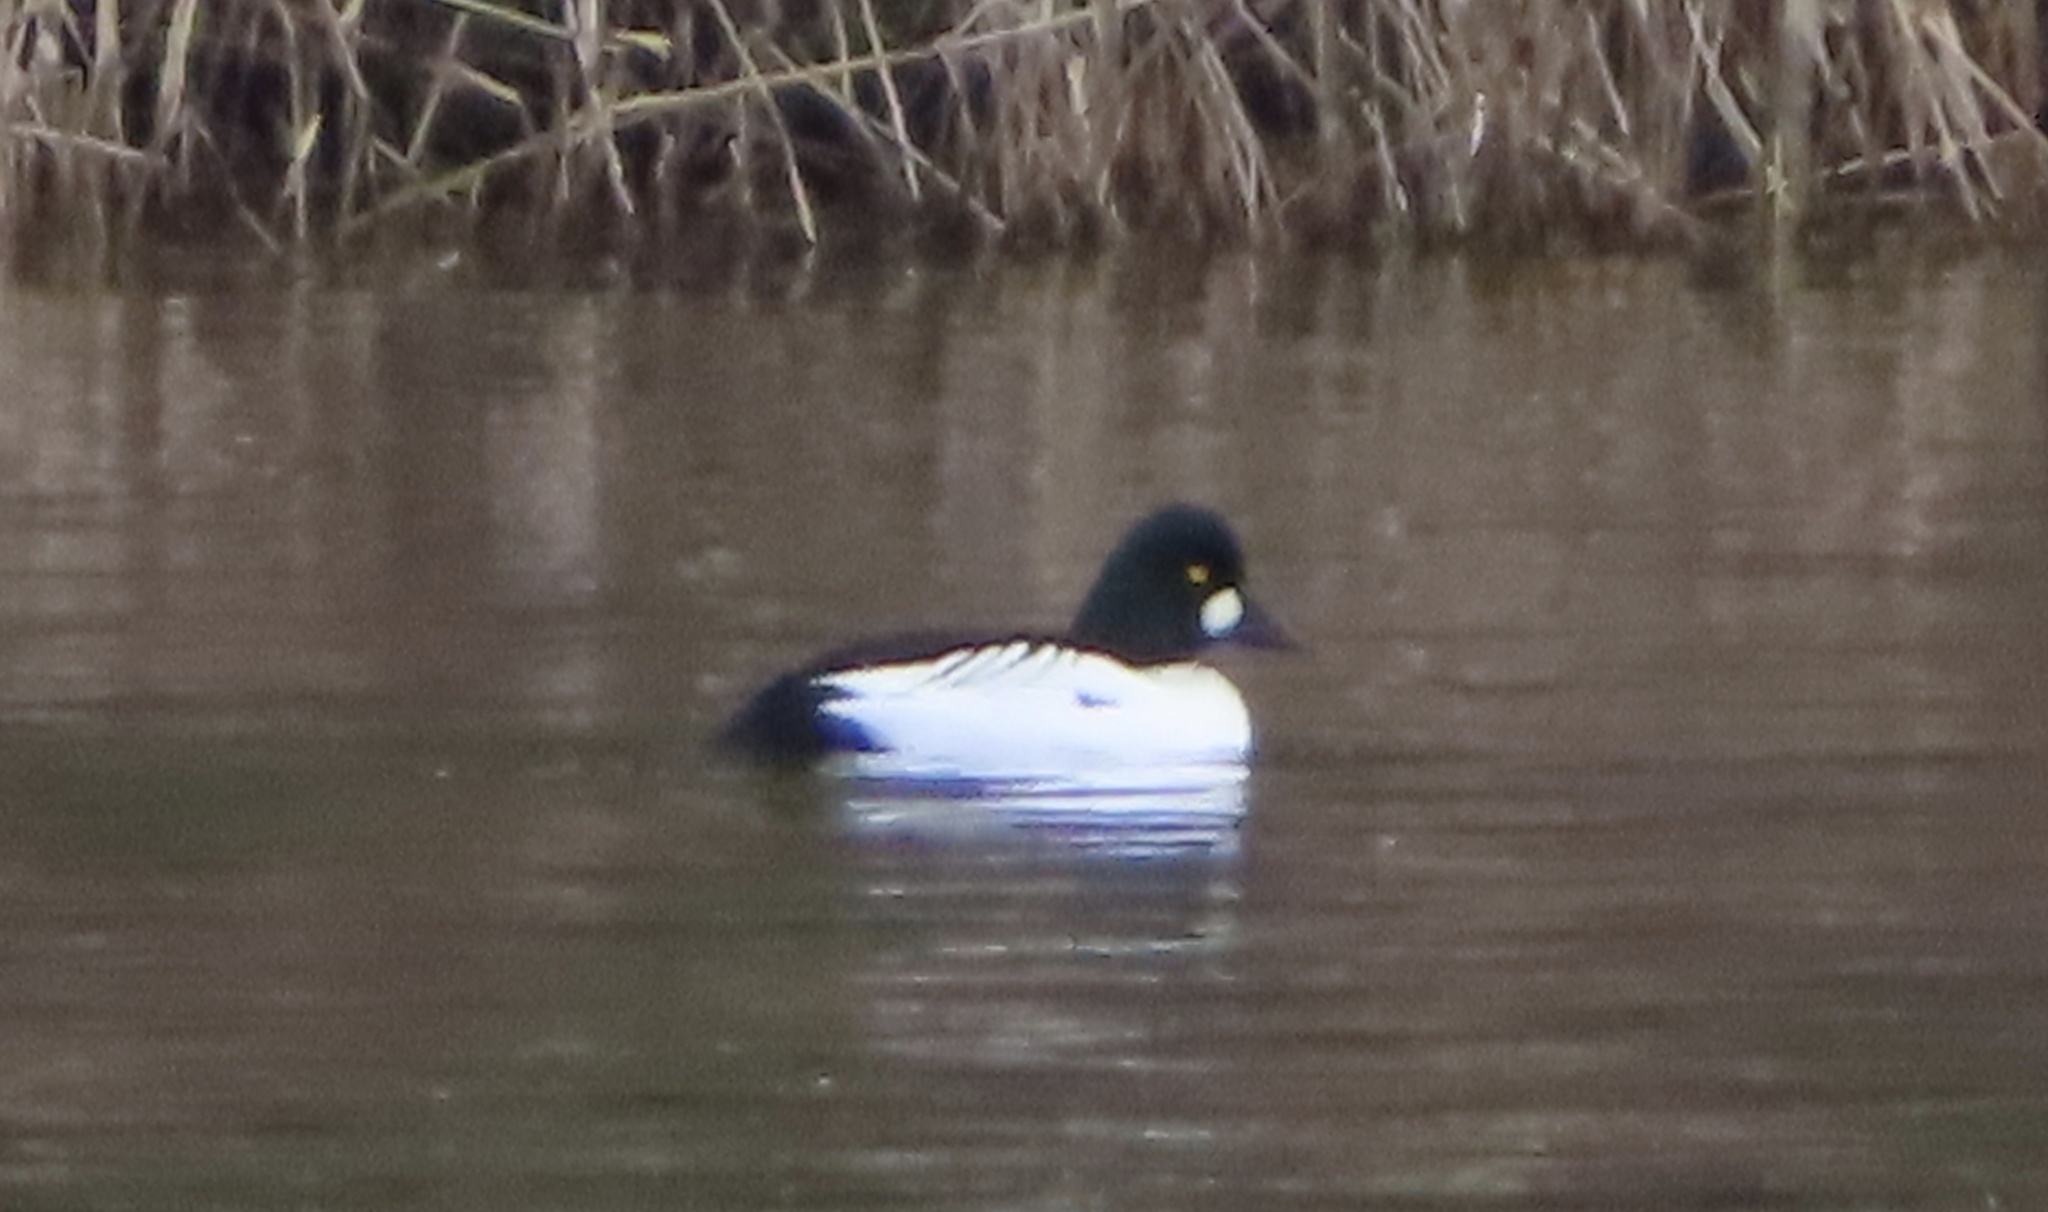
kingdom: Animalia
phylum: Chordata
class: Aves
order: Anseriformes
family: Anatidae
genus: Bucephala
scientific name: Bucephala clangula
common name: Common goldeneye
